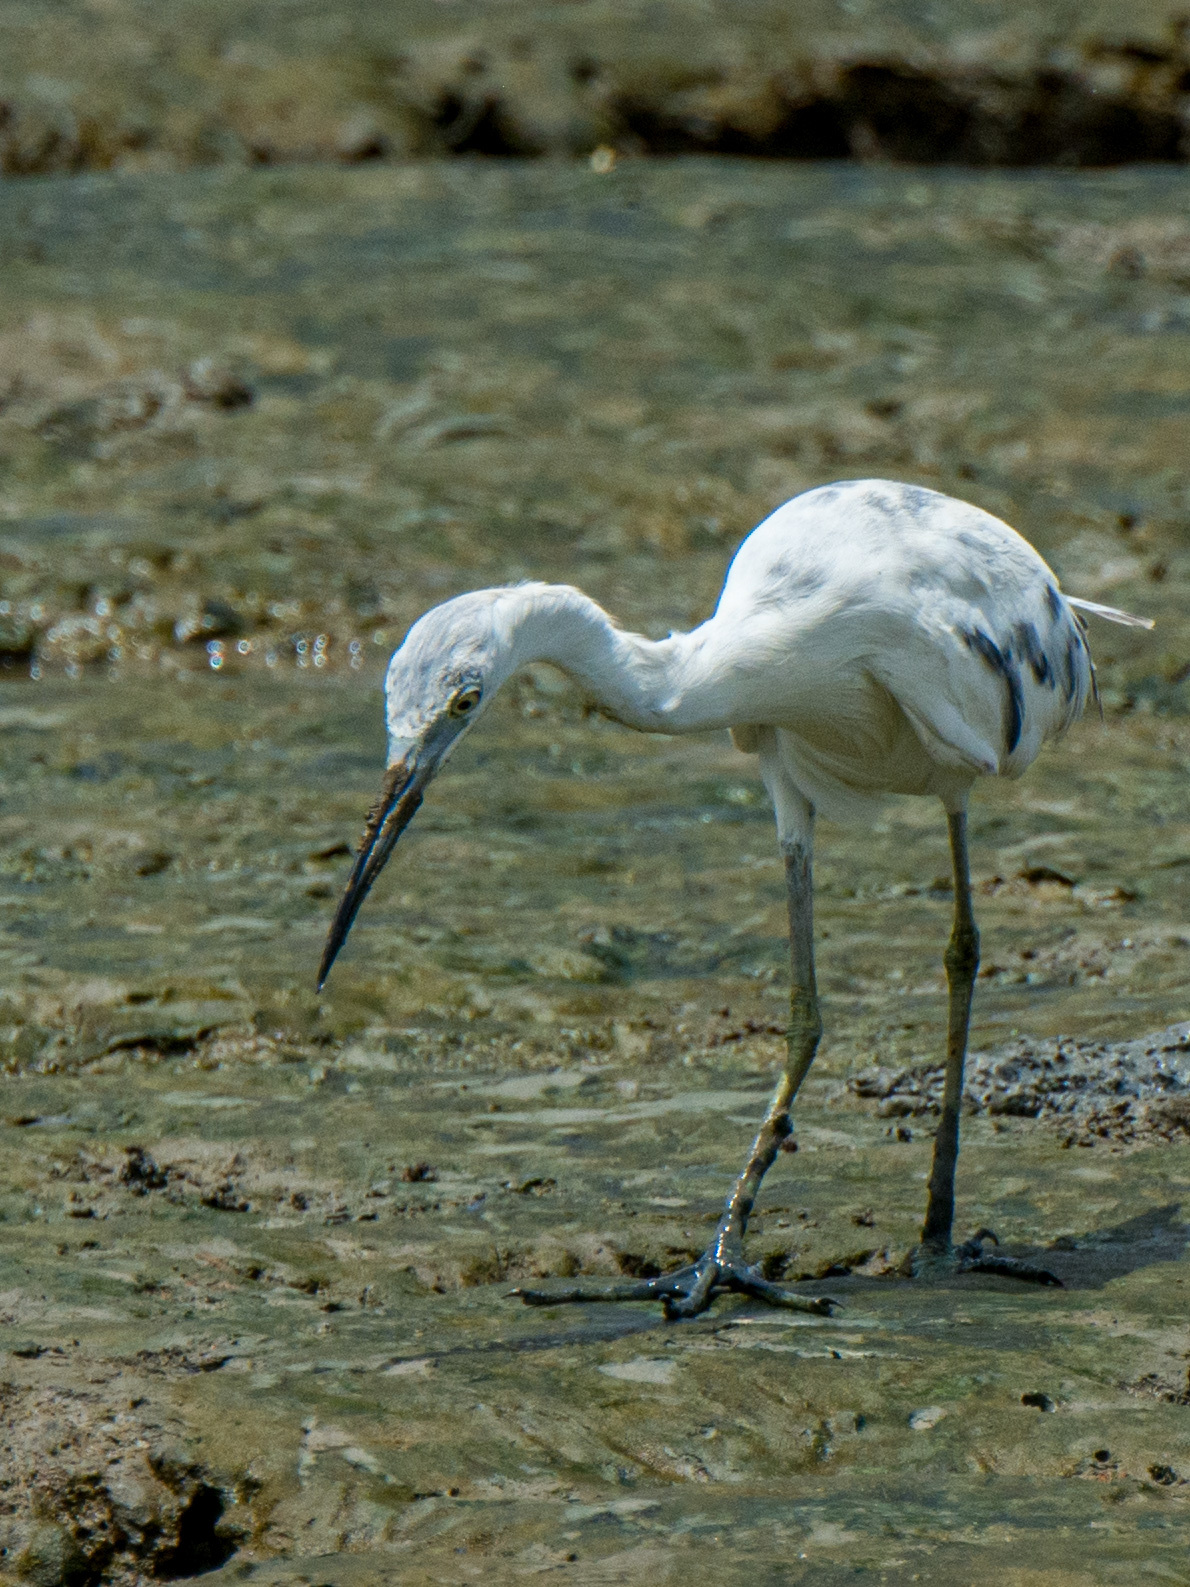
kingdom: Animalia
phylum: Chordata
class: Aves
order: Pelecaniformes
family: Ardeidae
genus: Egretta
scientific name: Egretta caerulea
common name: Little blue heron
